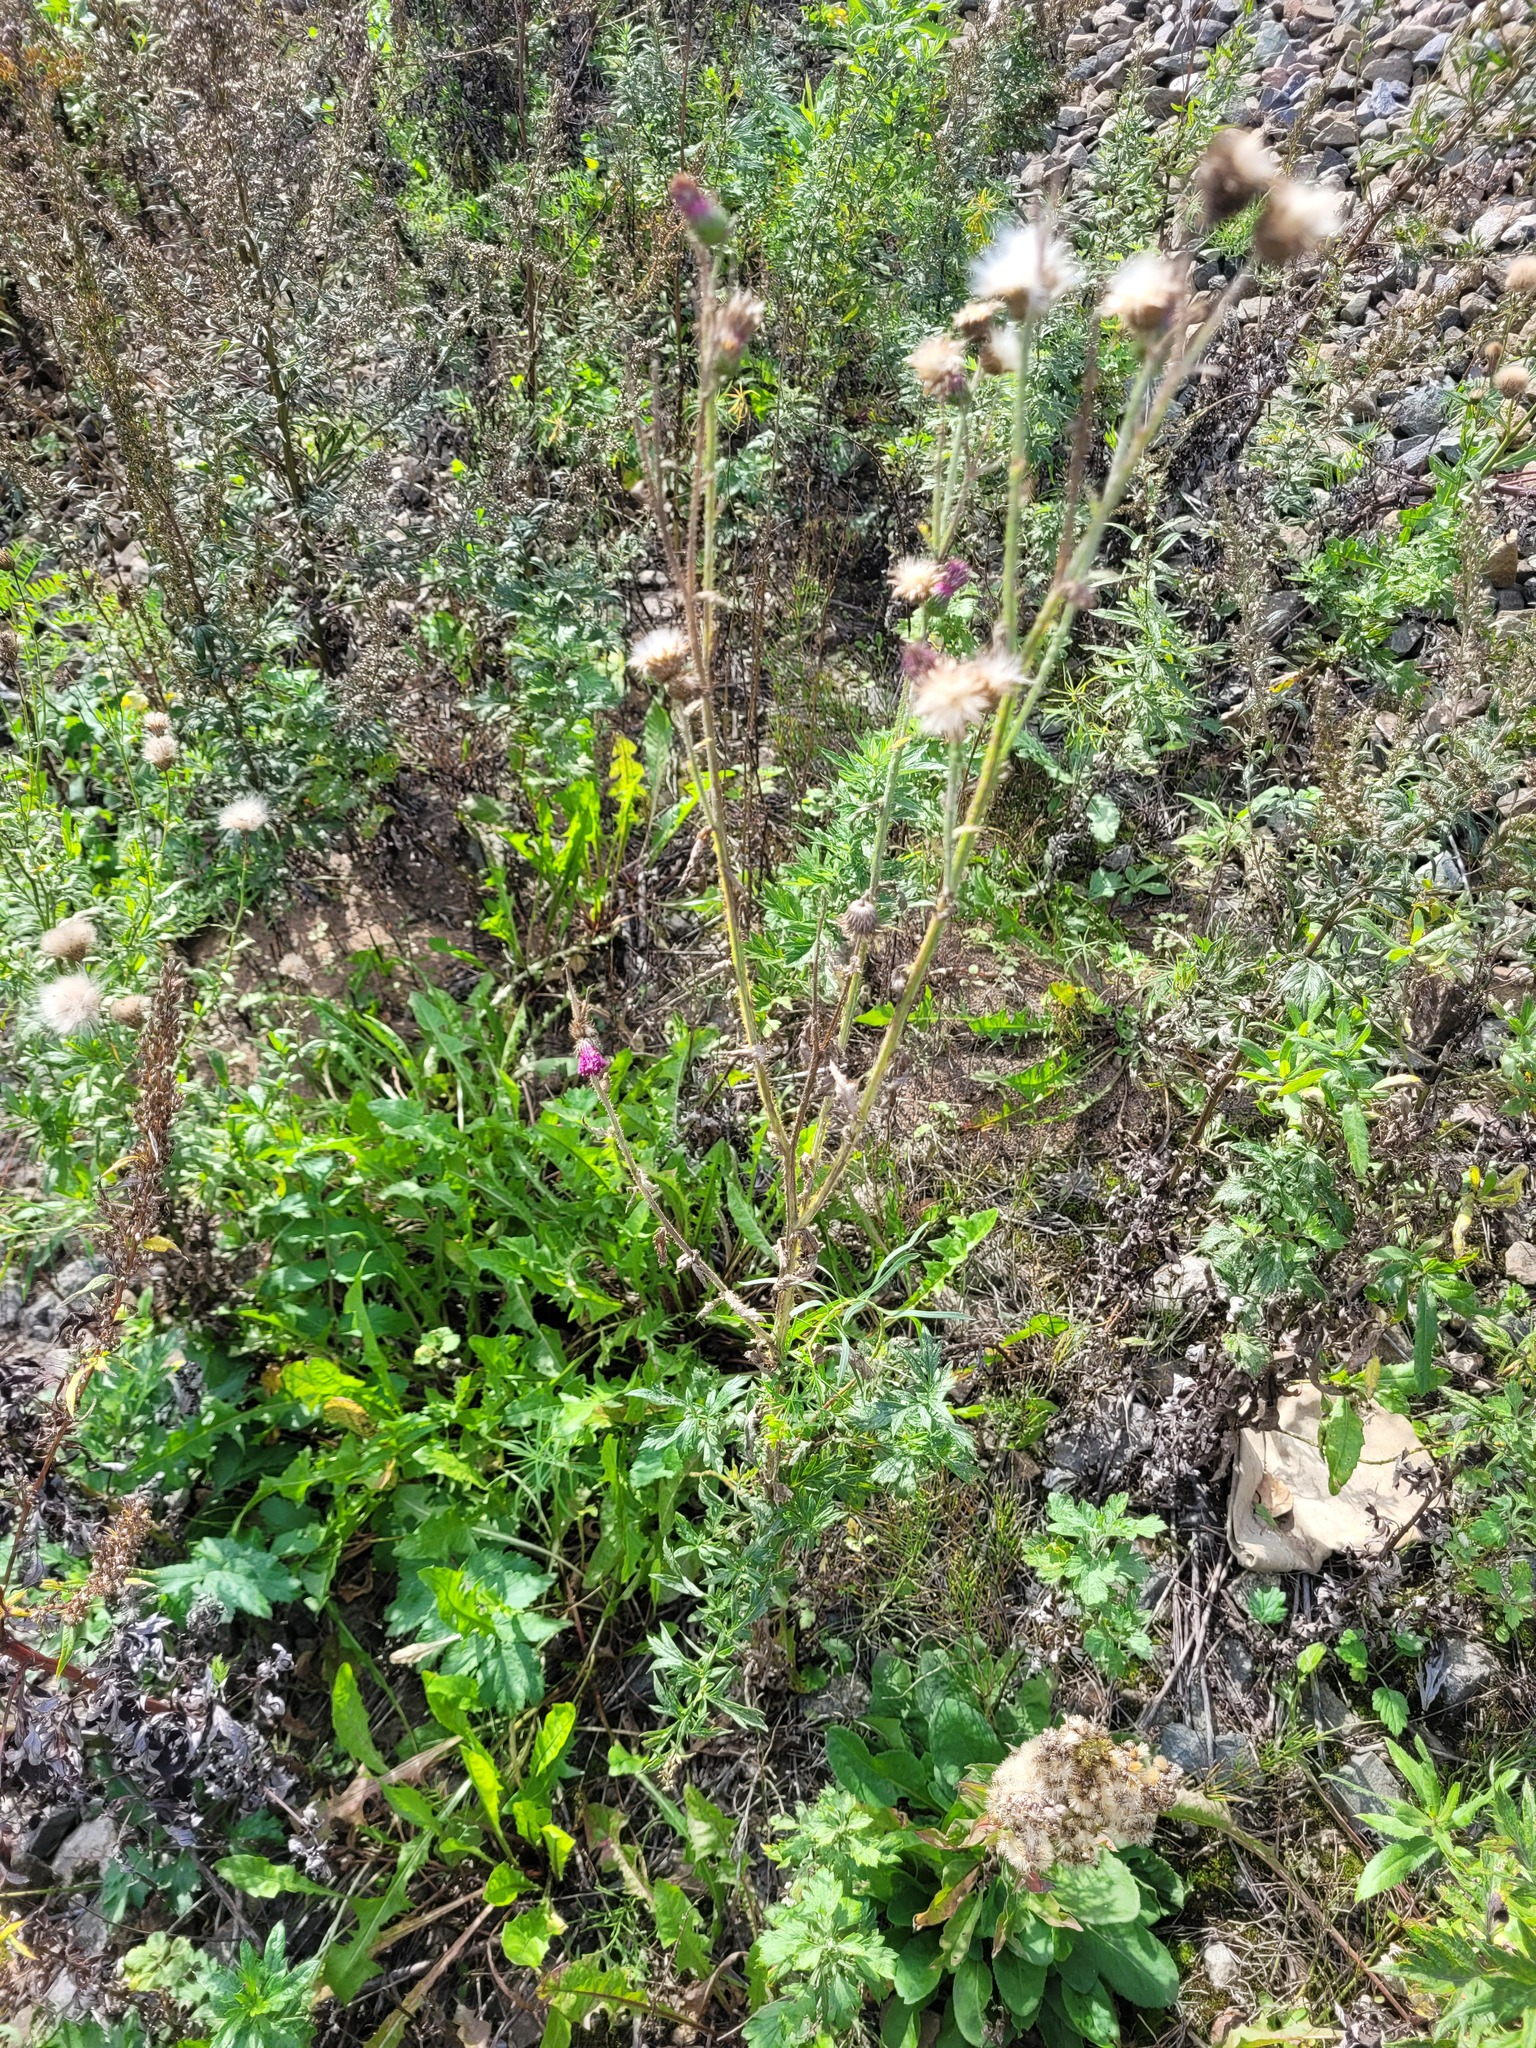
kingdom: Plantae
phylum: Tracheophyta
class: Magnoliopsida
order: Asterales
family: Asteraceae
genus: Carduus
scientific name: Carduus crispus
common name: Welted thistle
